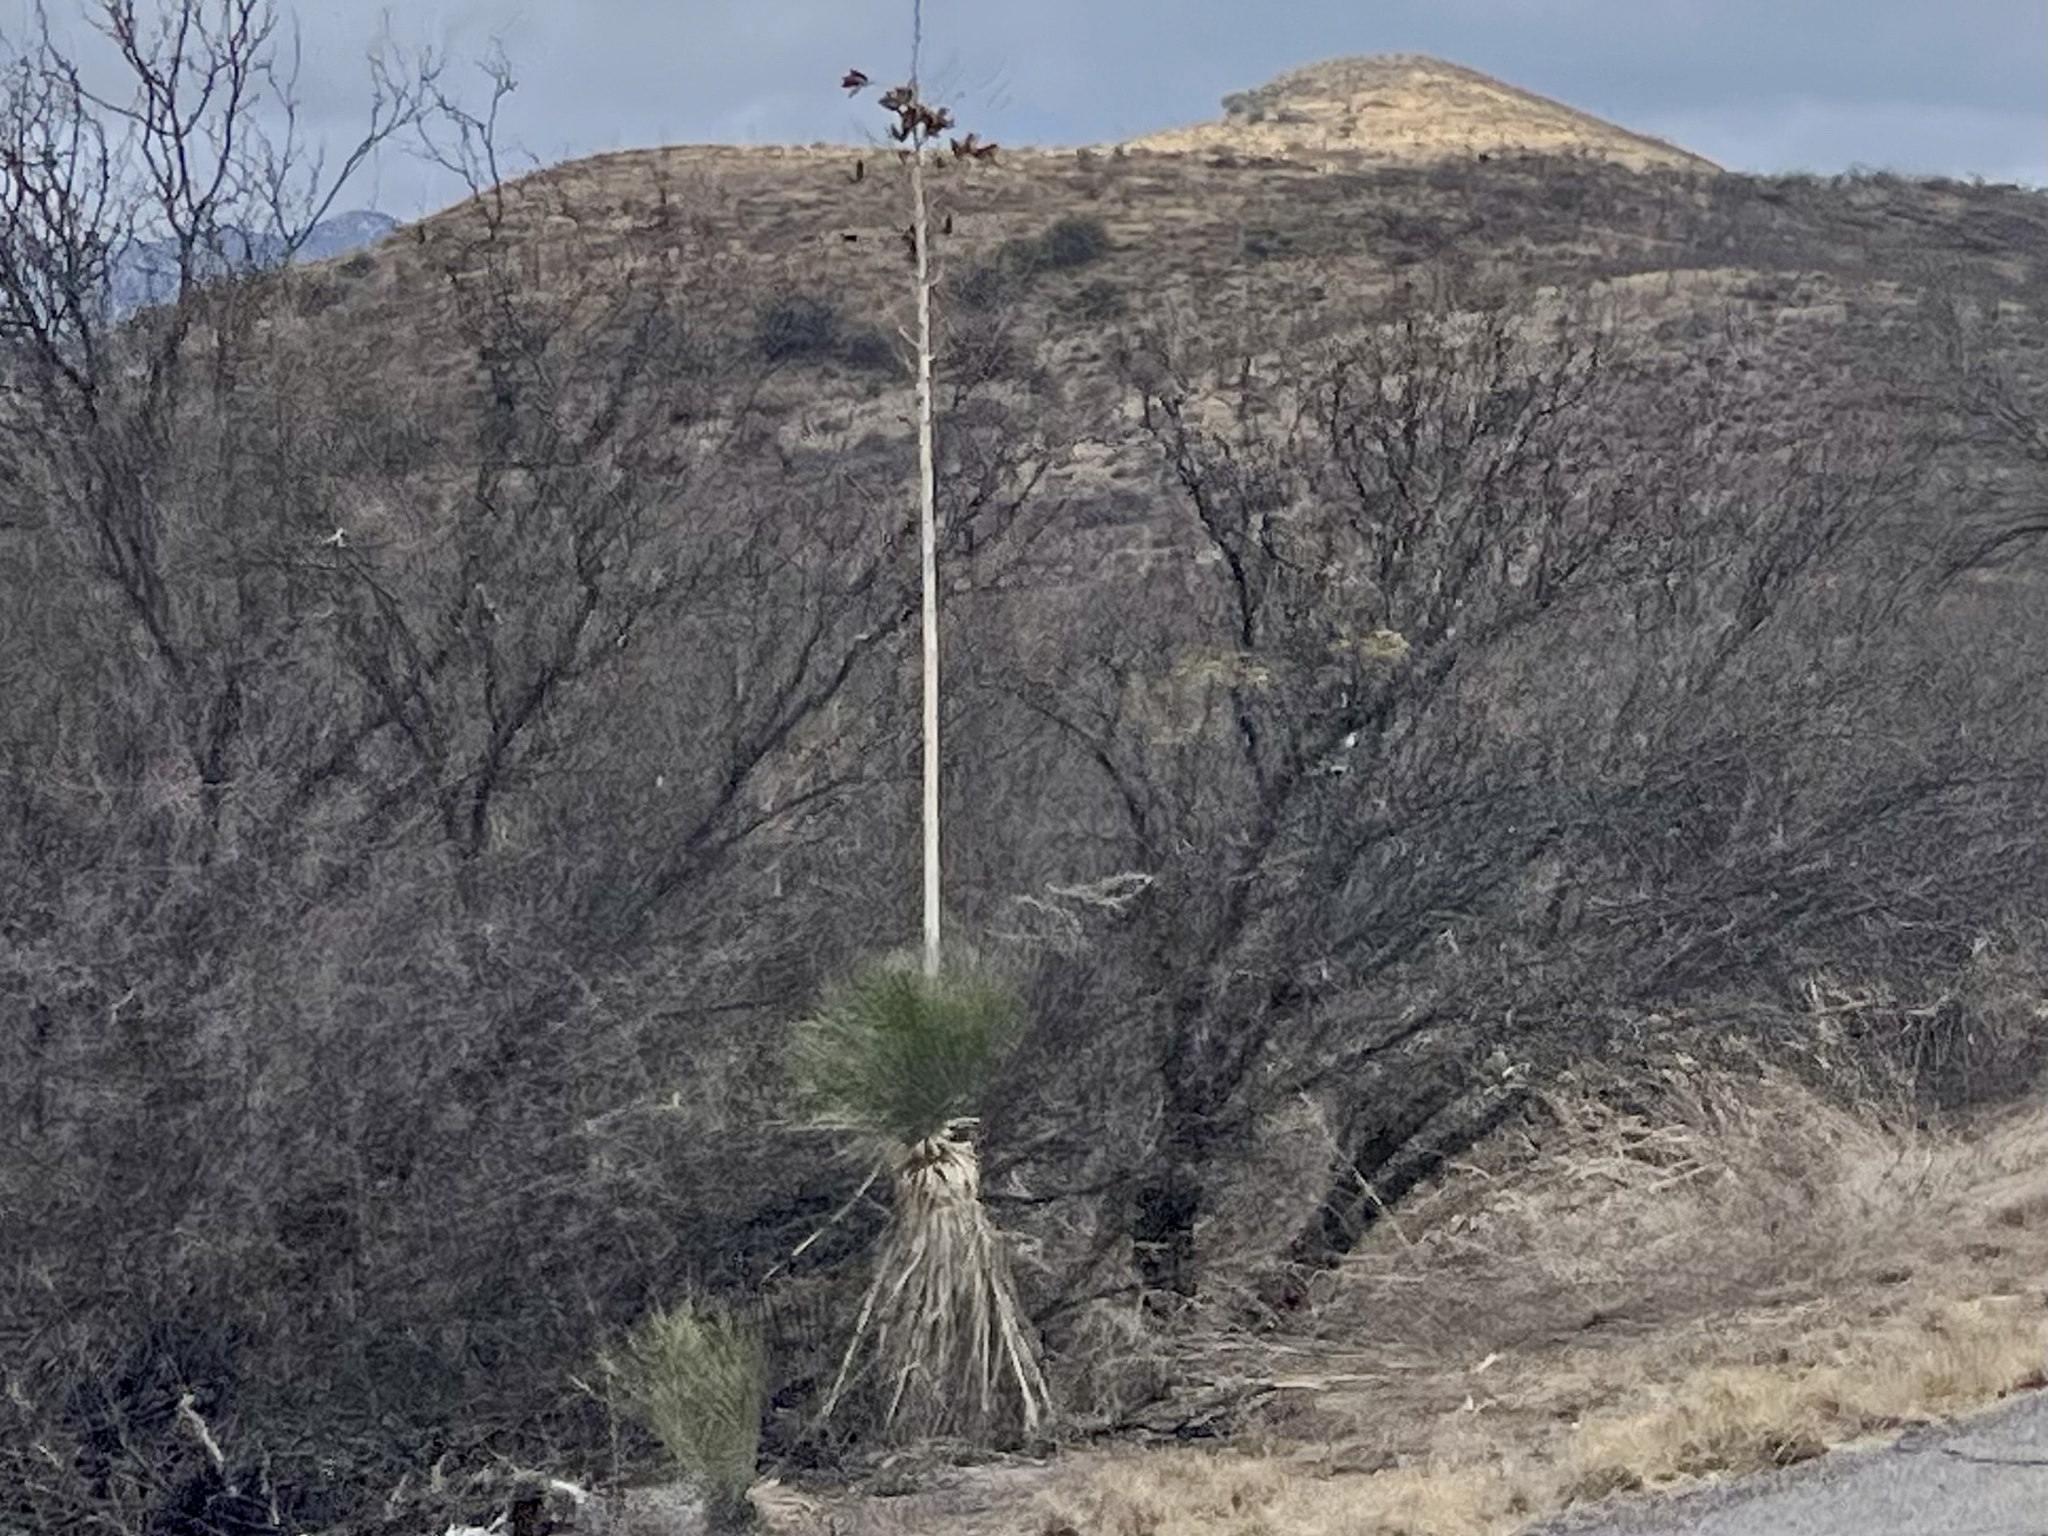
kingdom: Plantae
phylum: Tracheophyta
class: Liliopsida
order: Asparagales
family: Asparagaceae
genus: Yucca
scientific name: Yucca elata
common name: Palmella
